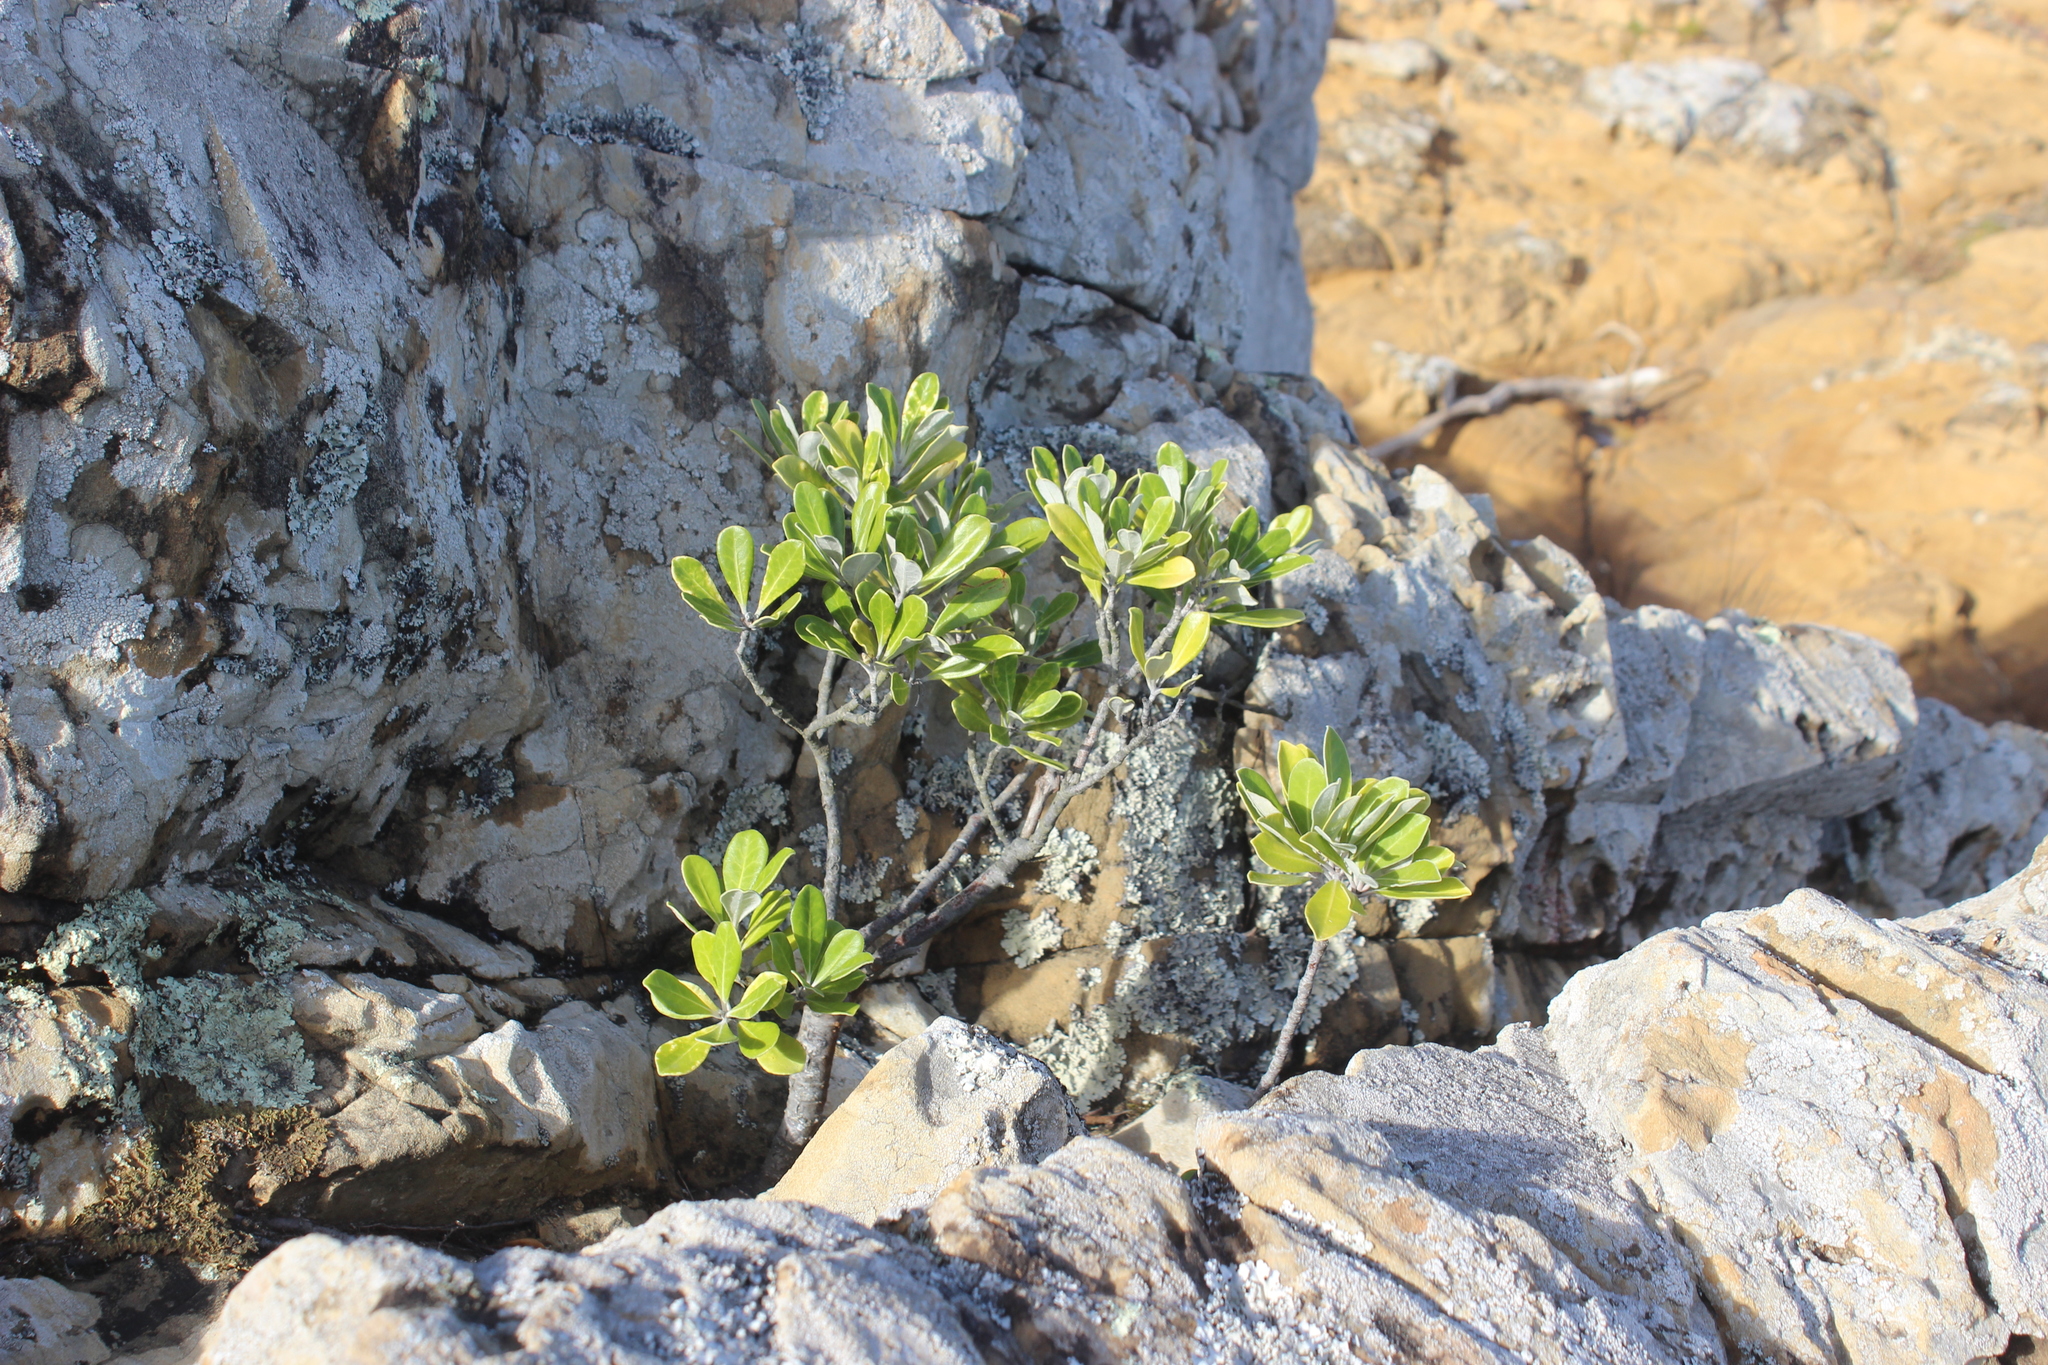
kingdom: Plantae
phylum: Tracheophyta
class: Magnoliopsida
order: Apiales
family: Pittosporaceae
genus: Pittosporum
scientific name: Pittosporum crassifolium
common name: Karo
